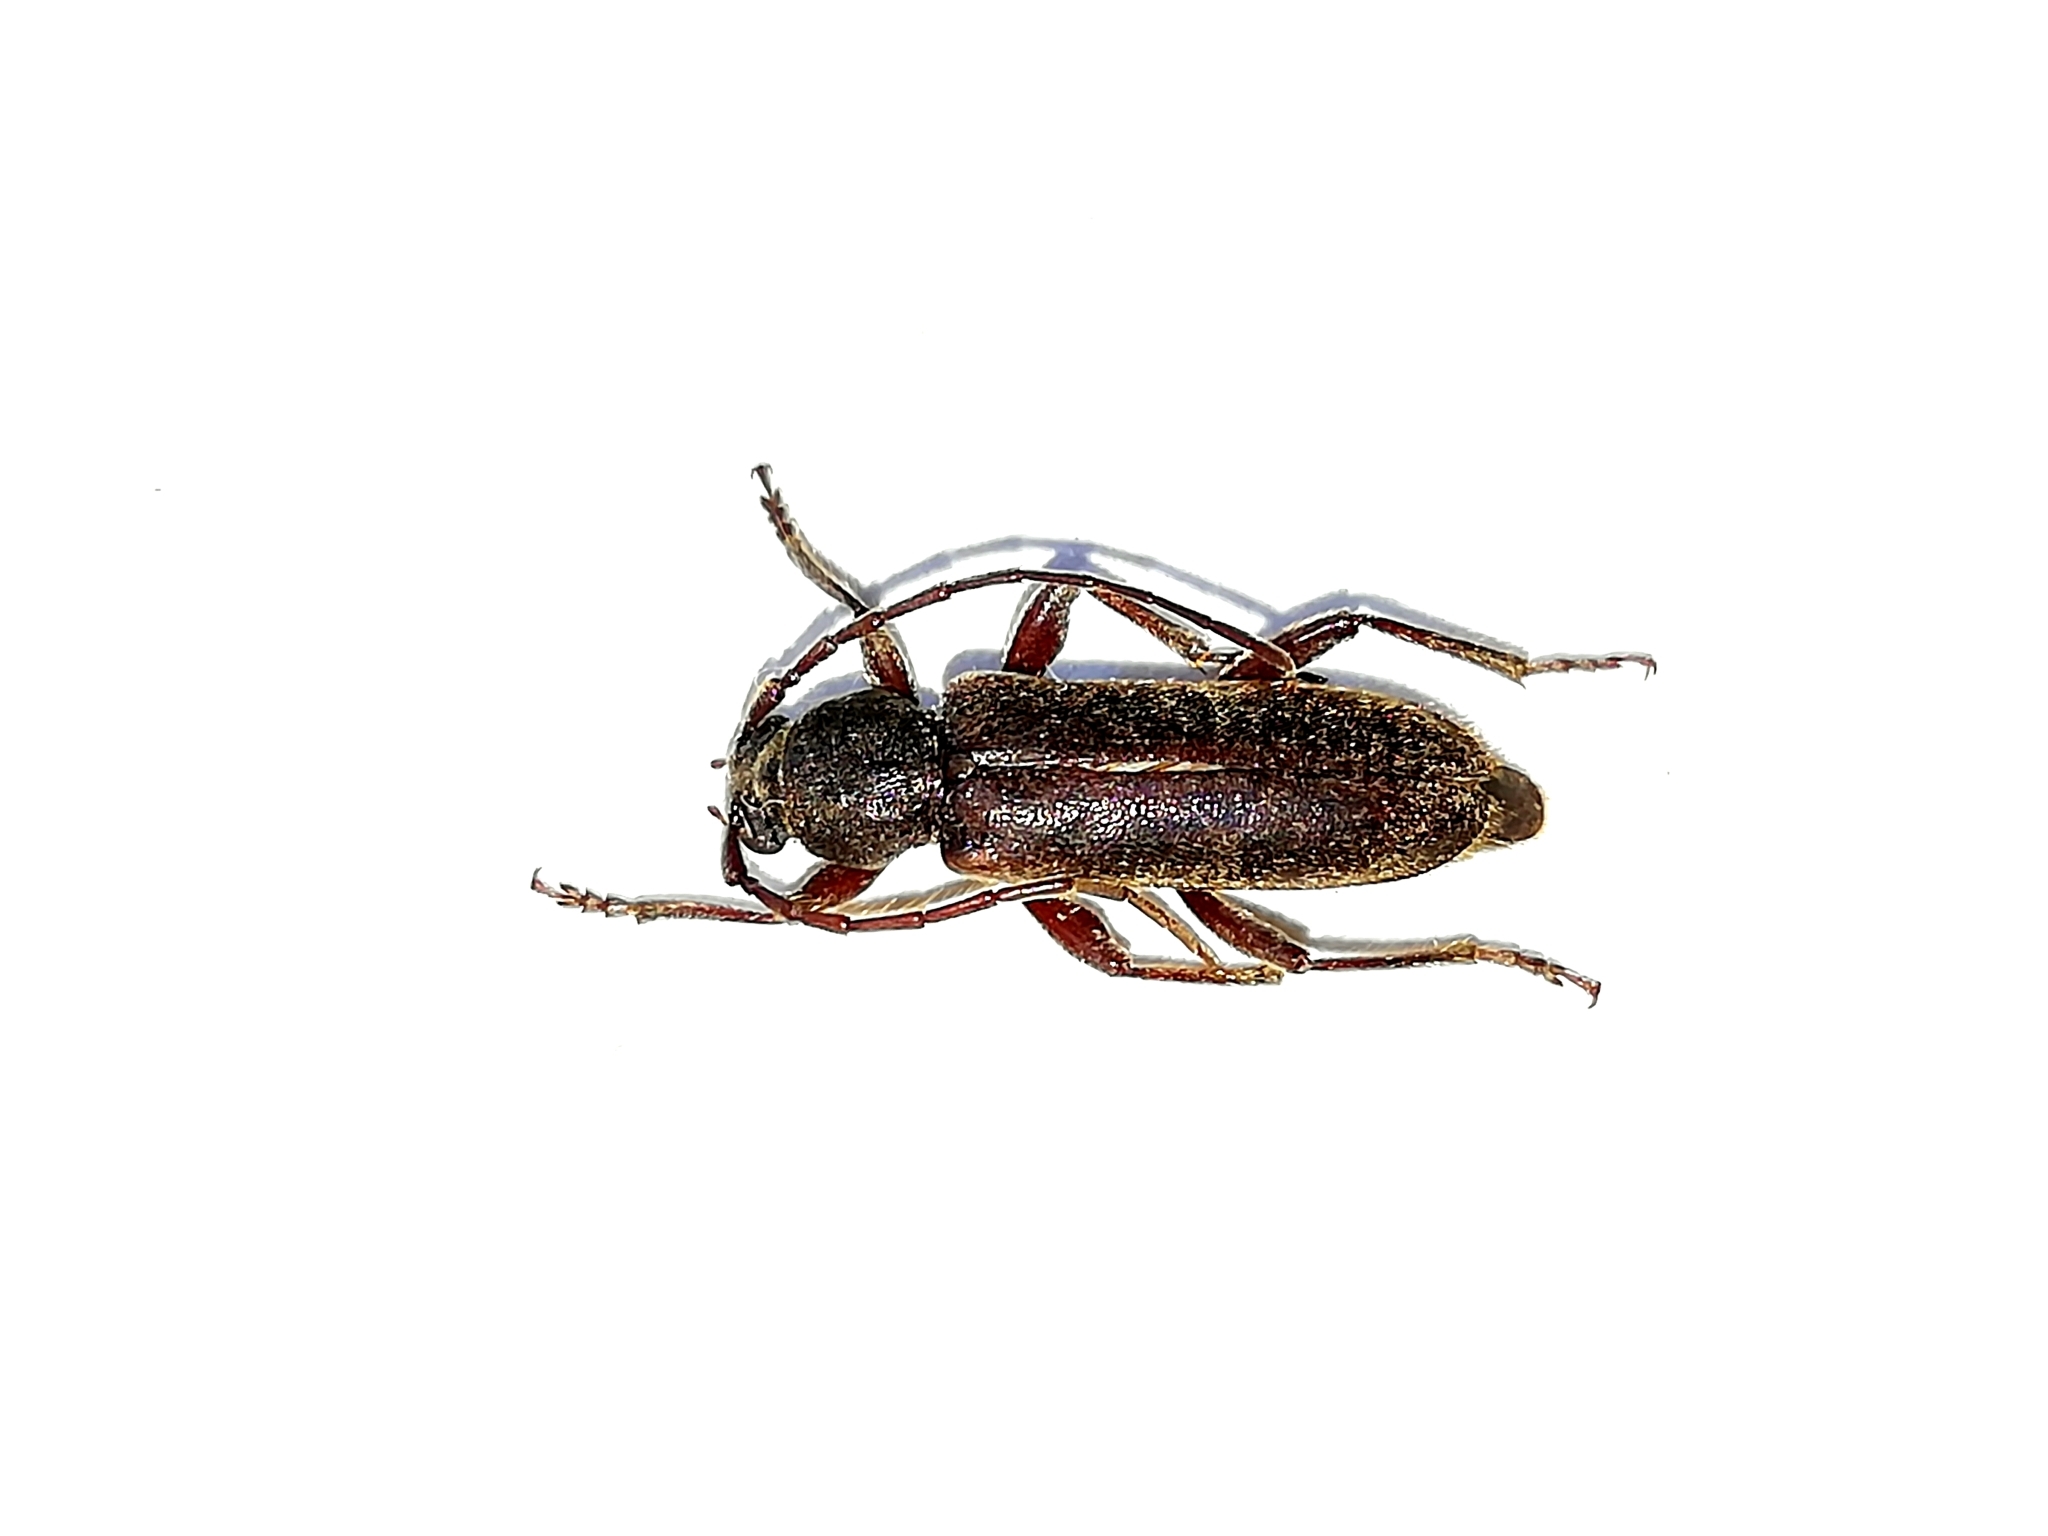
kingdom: Animalia
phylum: Arthropoda
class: Insecta
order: Coleoptera
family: Cerambycidae
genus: Trichoferus
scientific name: Trichoferus campestris
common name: Velvet long horned beetle
